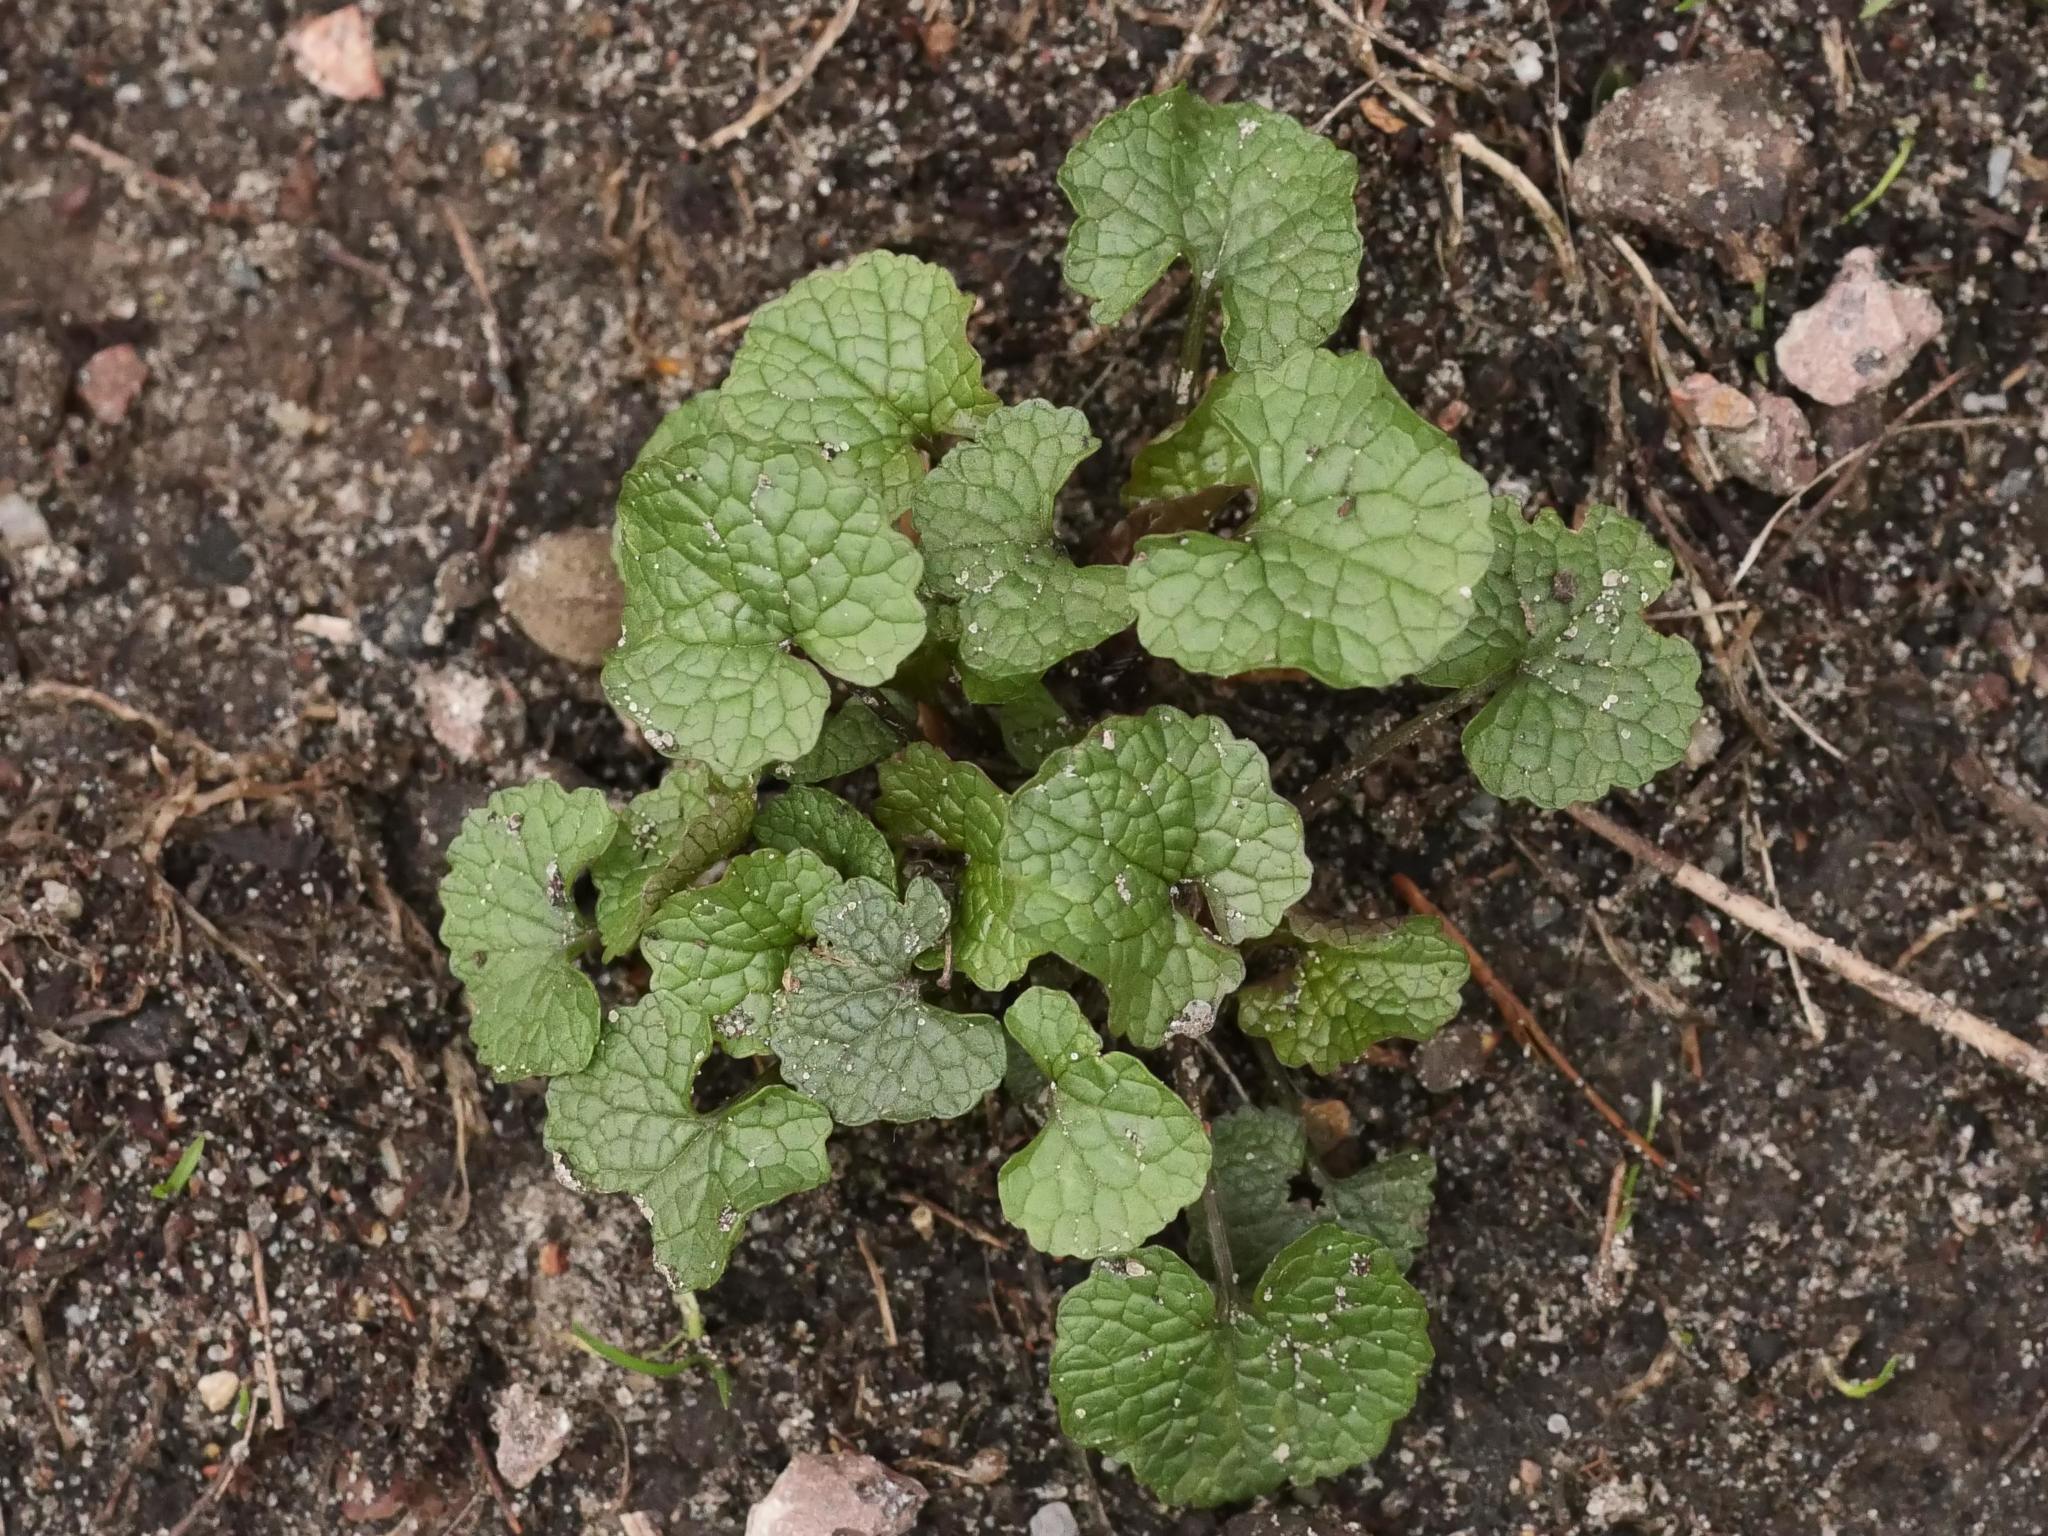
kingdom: Plantae
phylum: Tracheophyta
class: Magnoliopsida
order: Brassicales
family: Brassicaceae
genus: Alliaria
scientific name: Alliaria petiolata
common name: Garlic mustard
